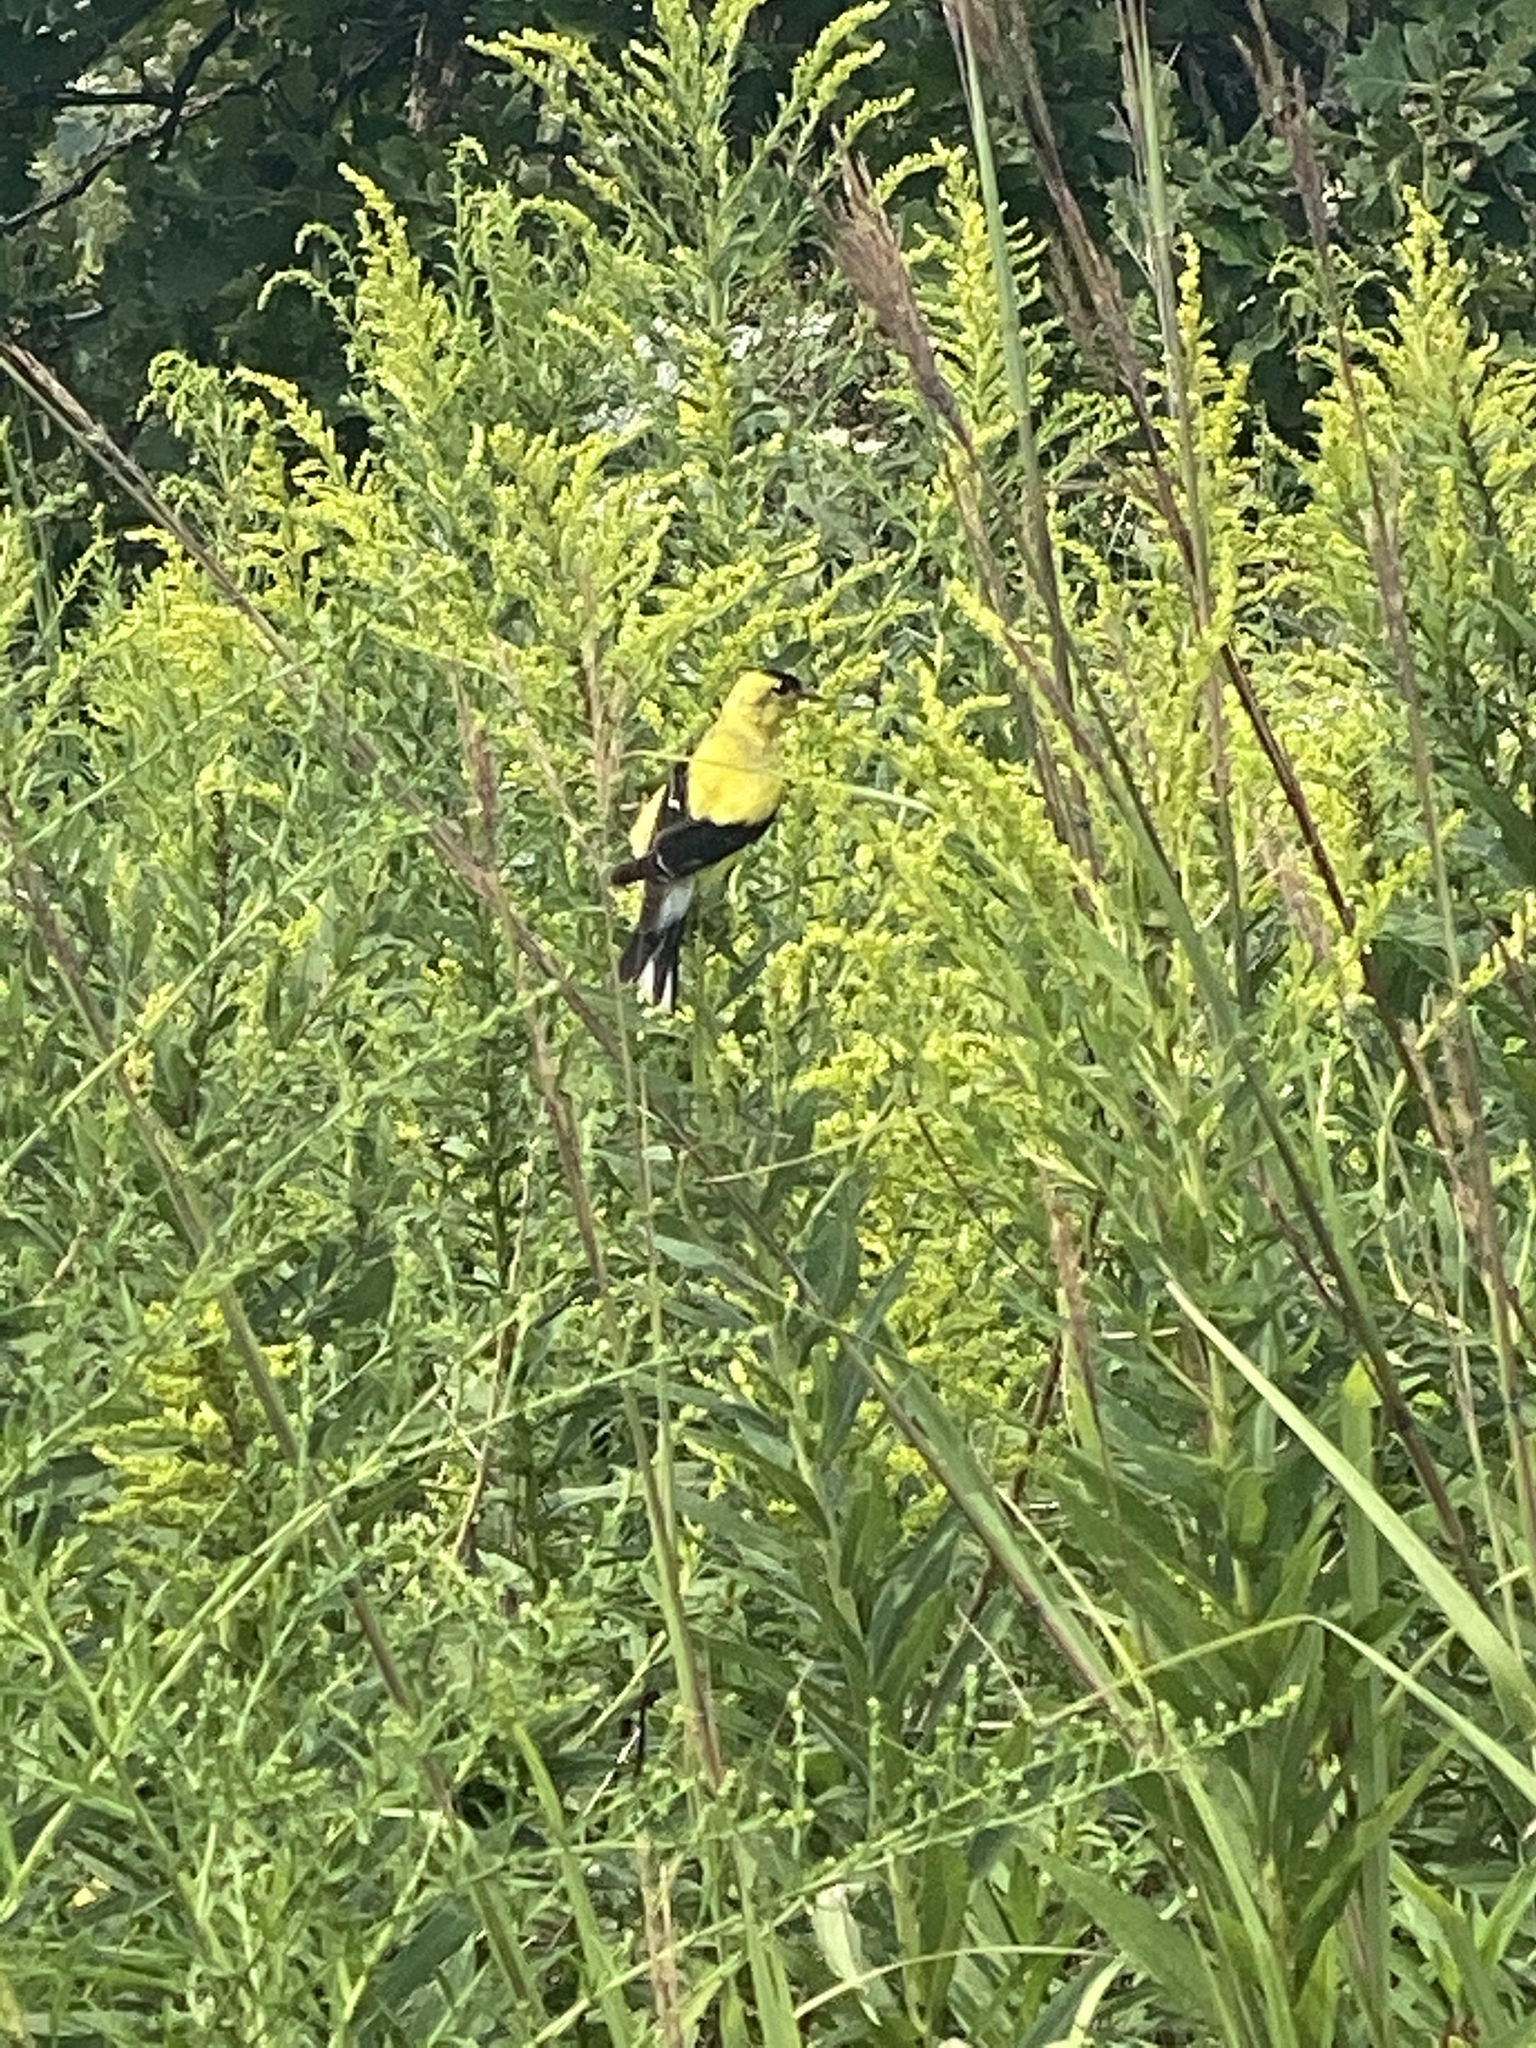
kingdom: Animalia
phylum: Chordata
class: Aves
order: Passeriformes
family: Fringillidae
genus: Spinus
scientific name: Spinus tristis
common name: American goldfinch
